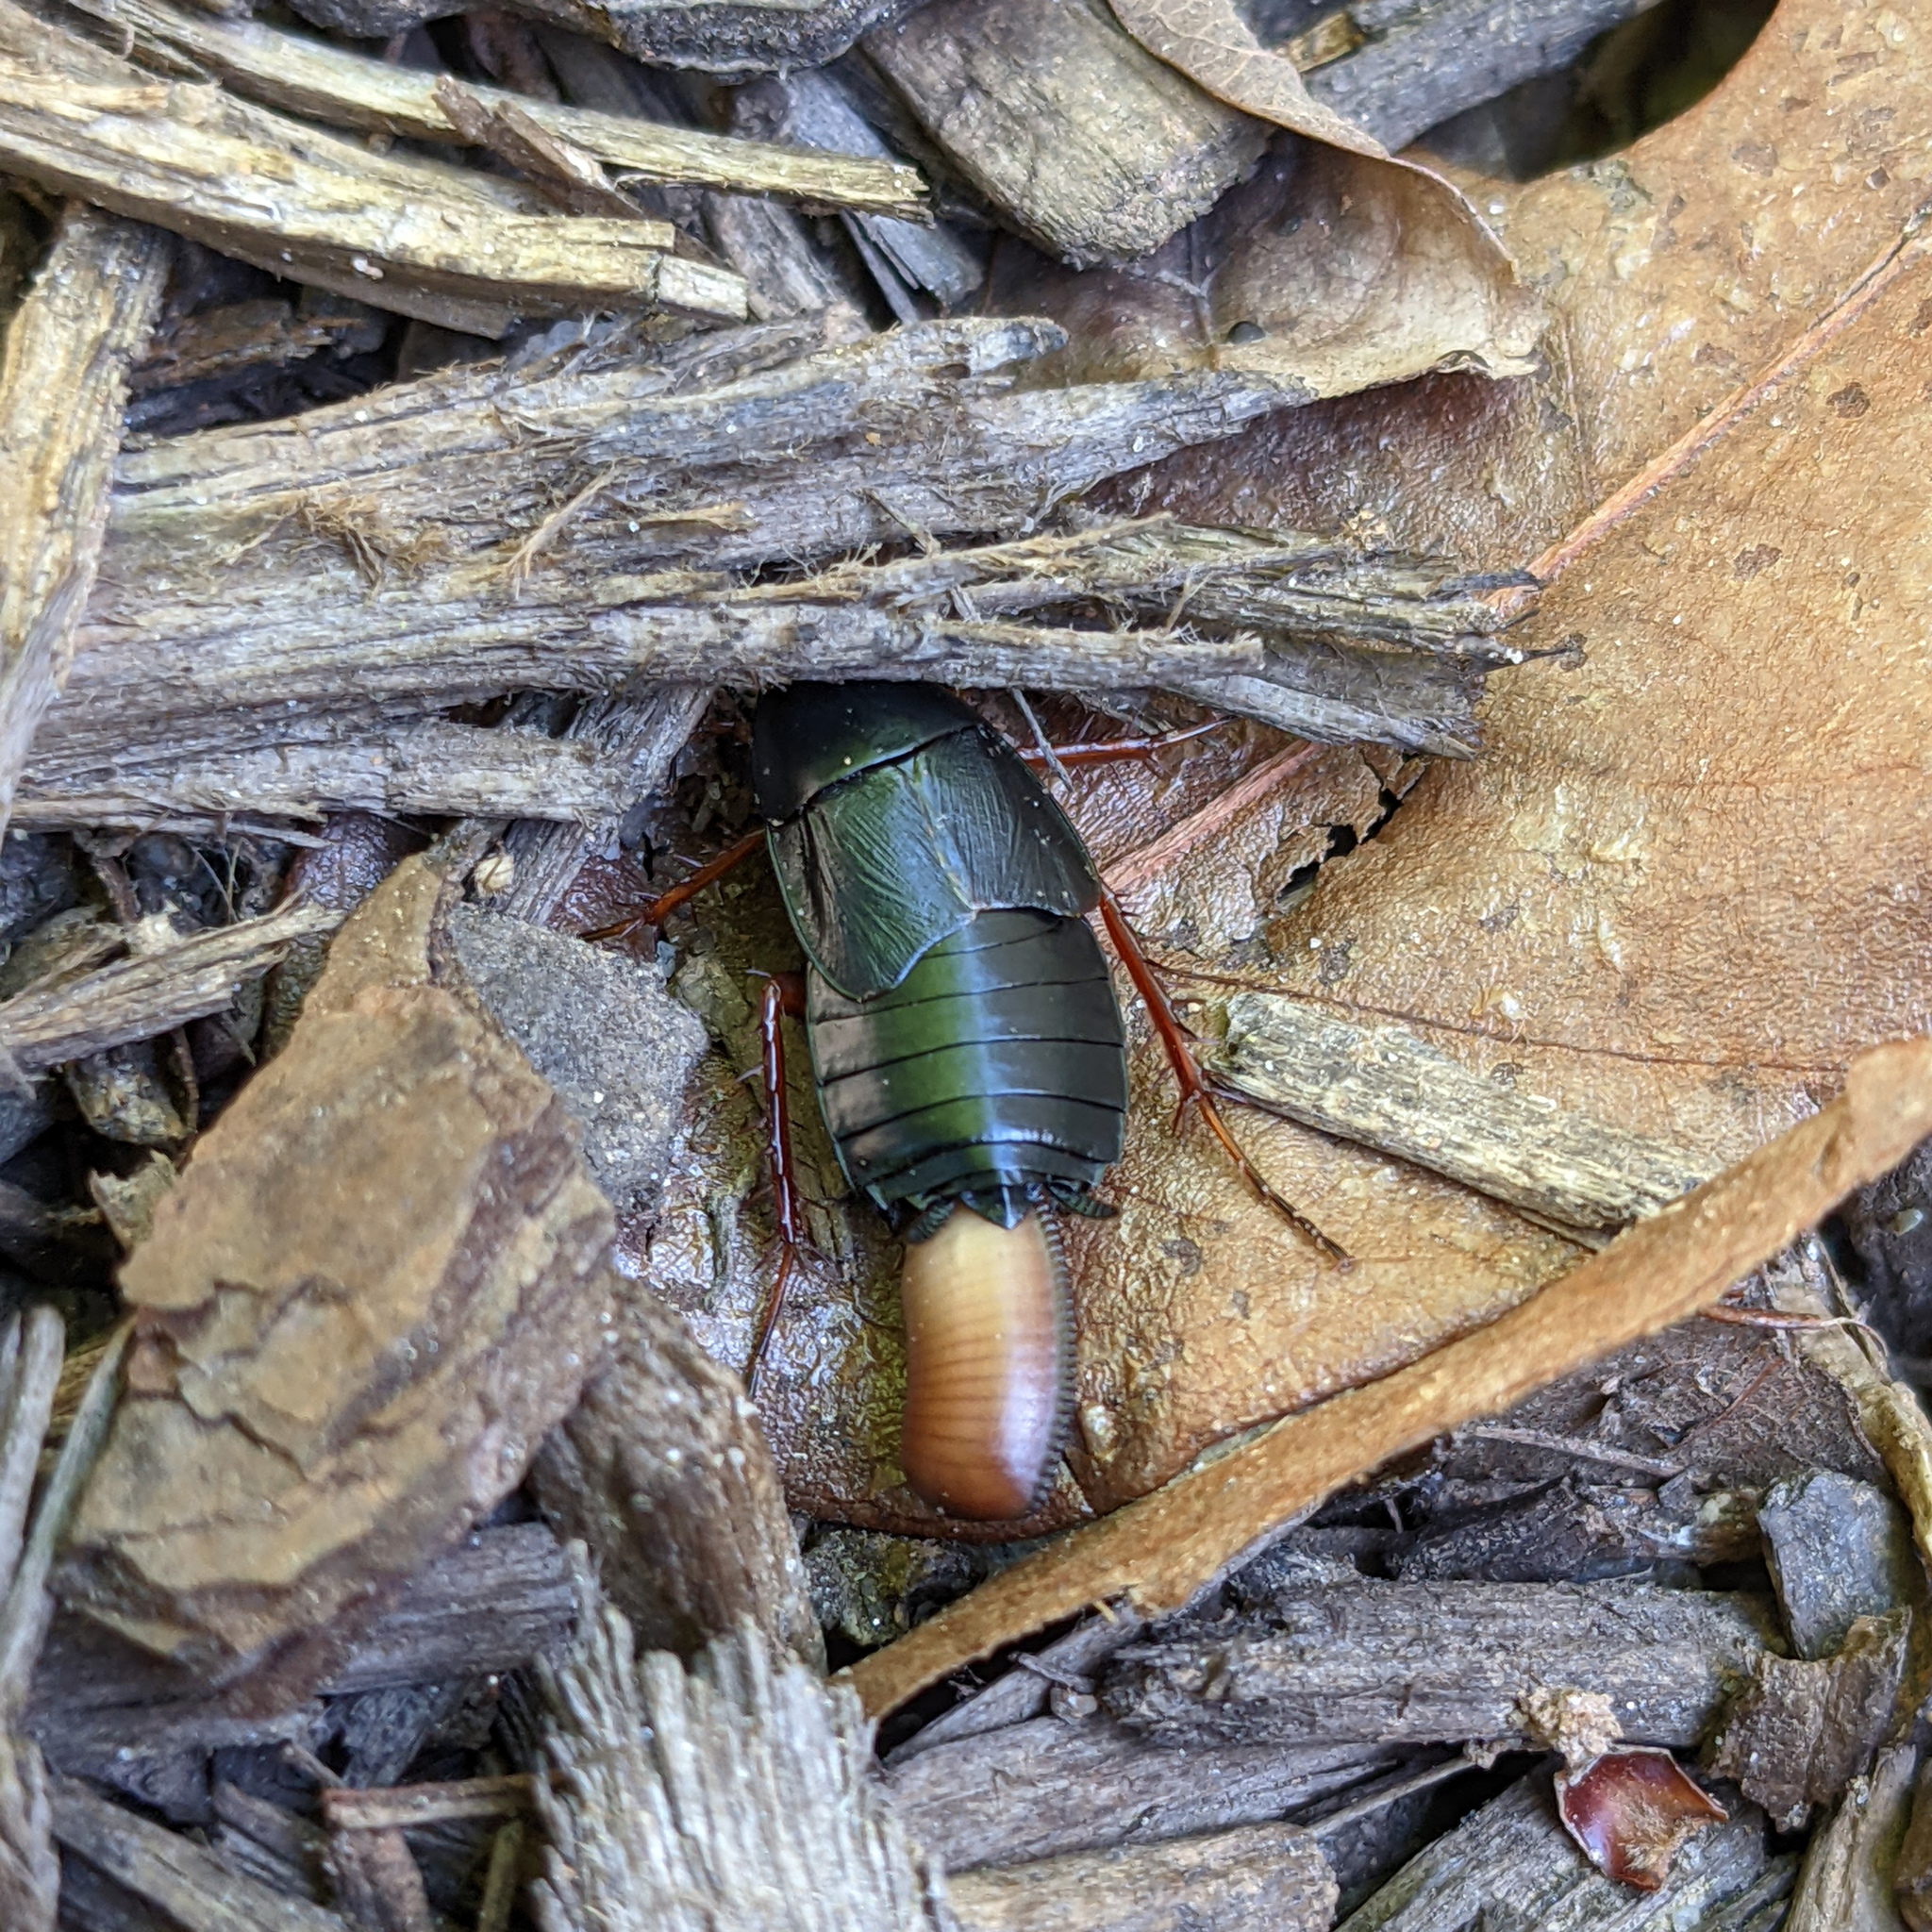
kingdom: Animalia
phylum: Arthropoda
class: Insecta
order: Blattodea
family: Ectobiidae
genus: Ischnoptera
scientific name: Ischnoptera deropeltiformis
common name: Dark wood cockroach
